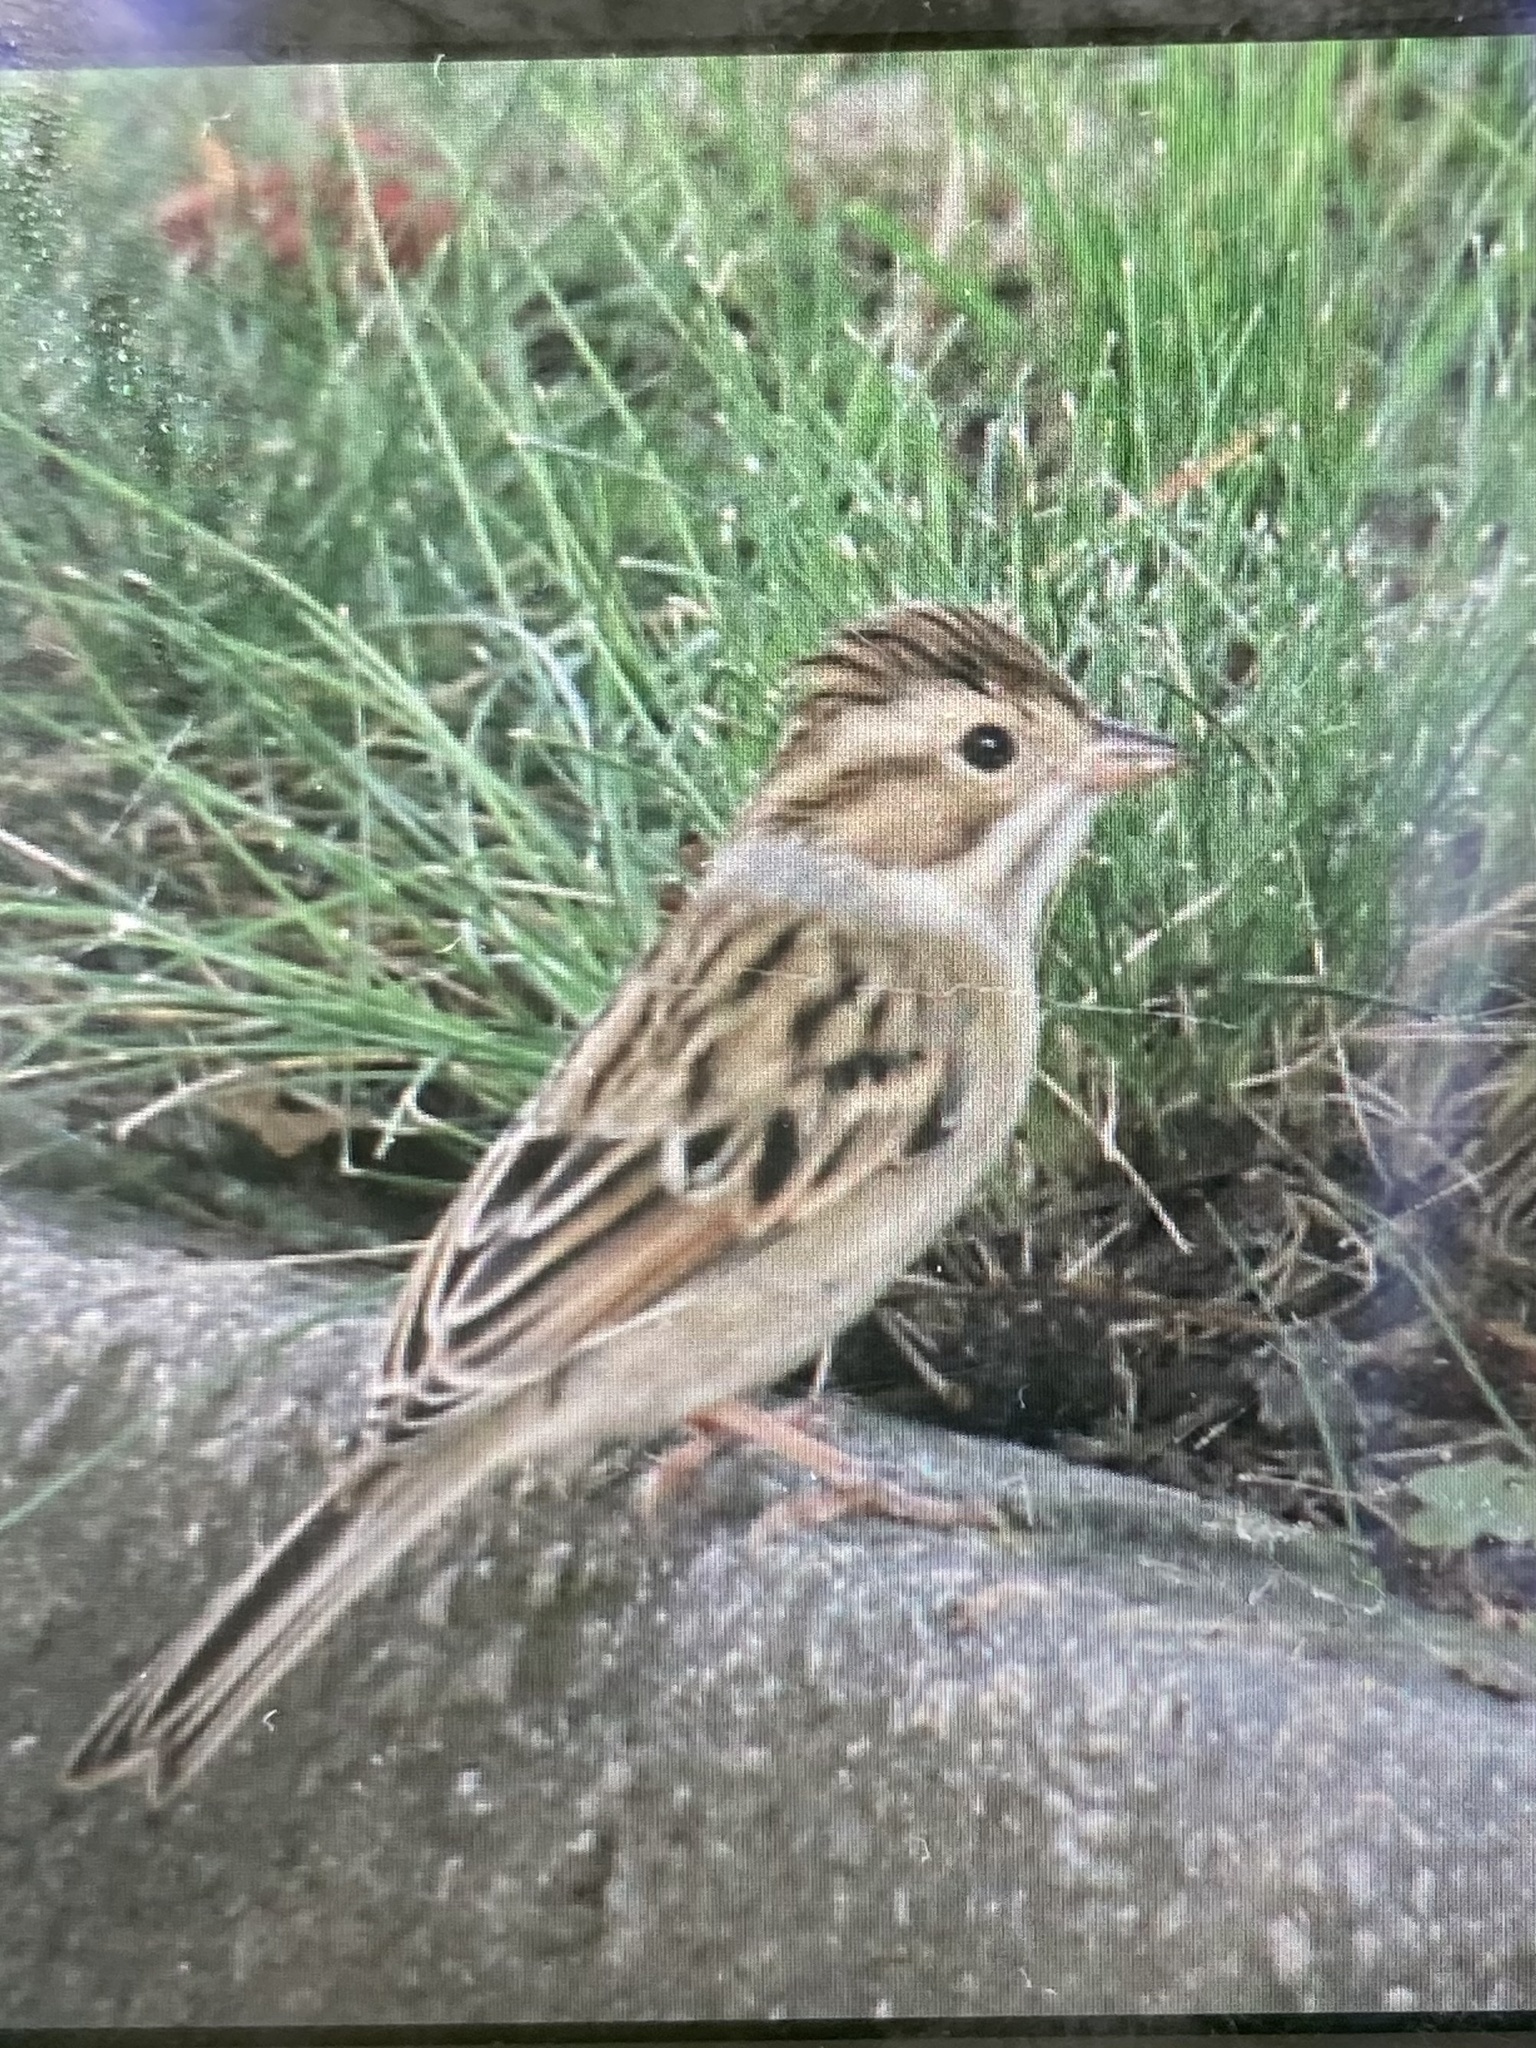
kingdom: Animalia
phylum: Chordata
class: Aves
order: Passeriformes
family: Passerellidae
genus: Spizella
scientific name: Spizella pallida
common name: Clay-colored sparrow
